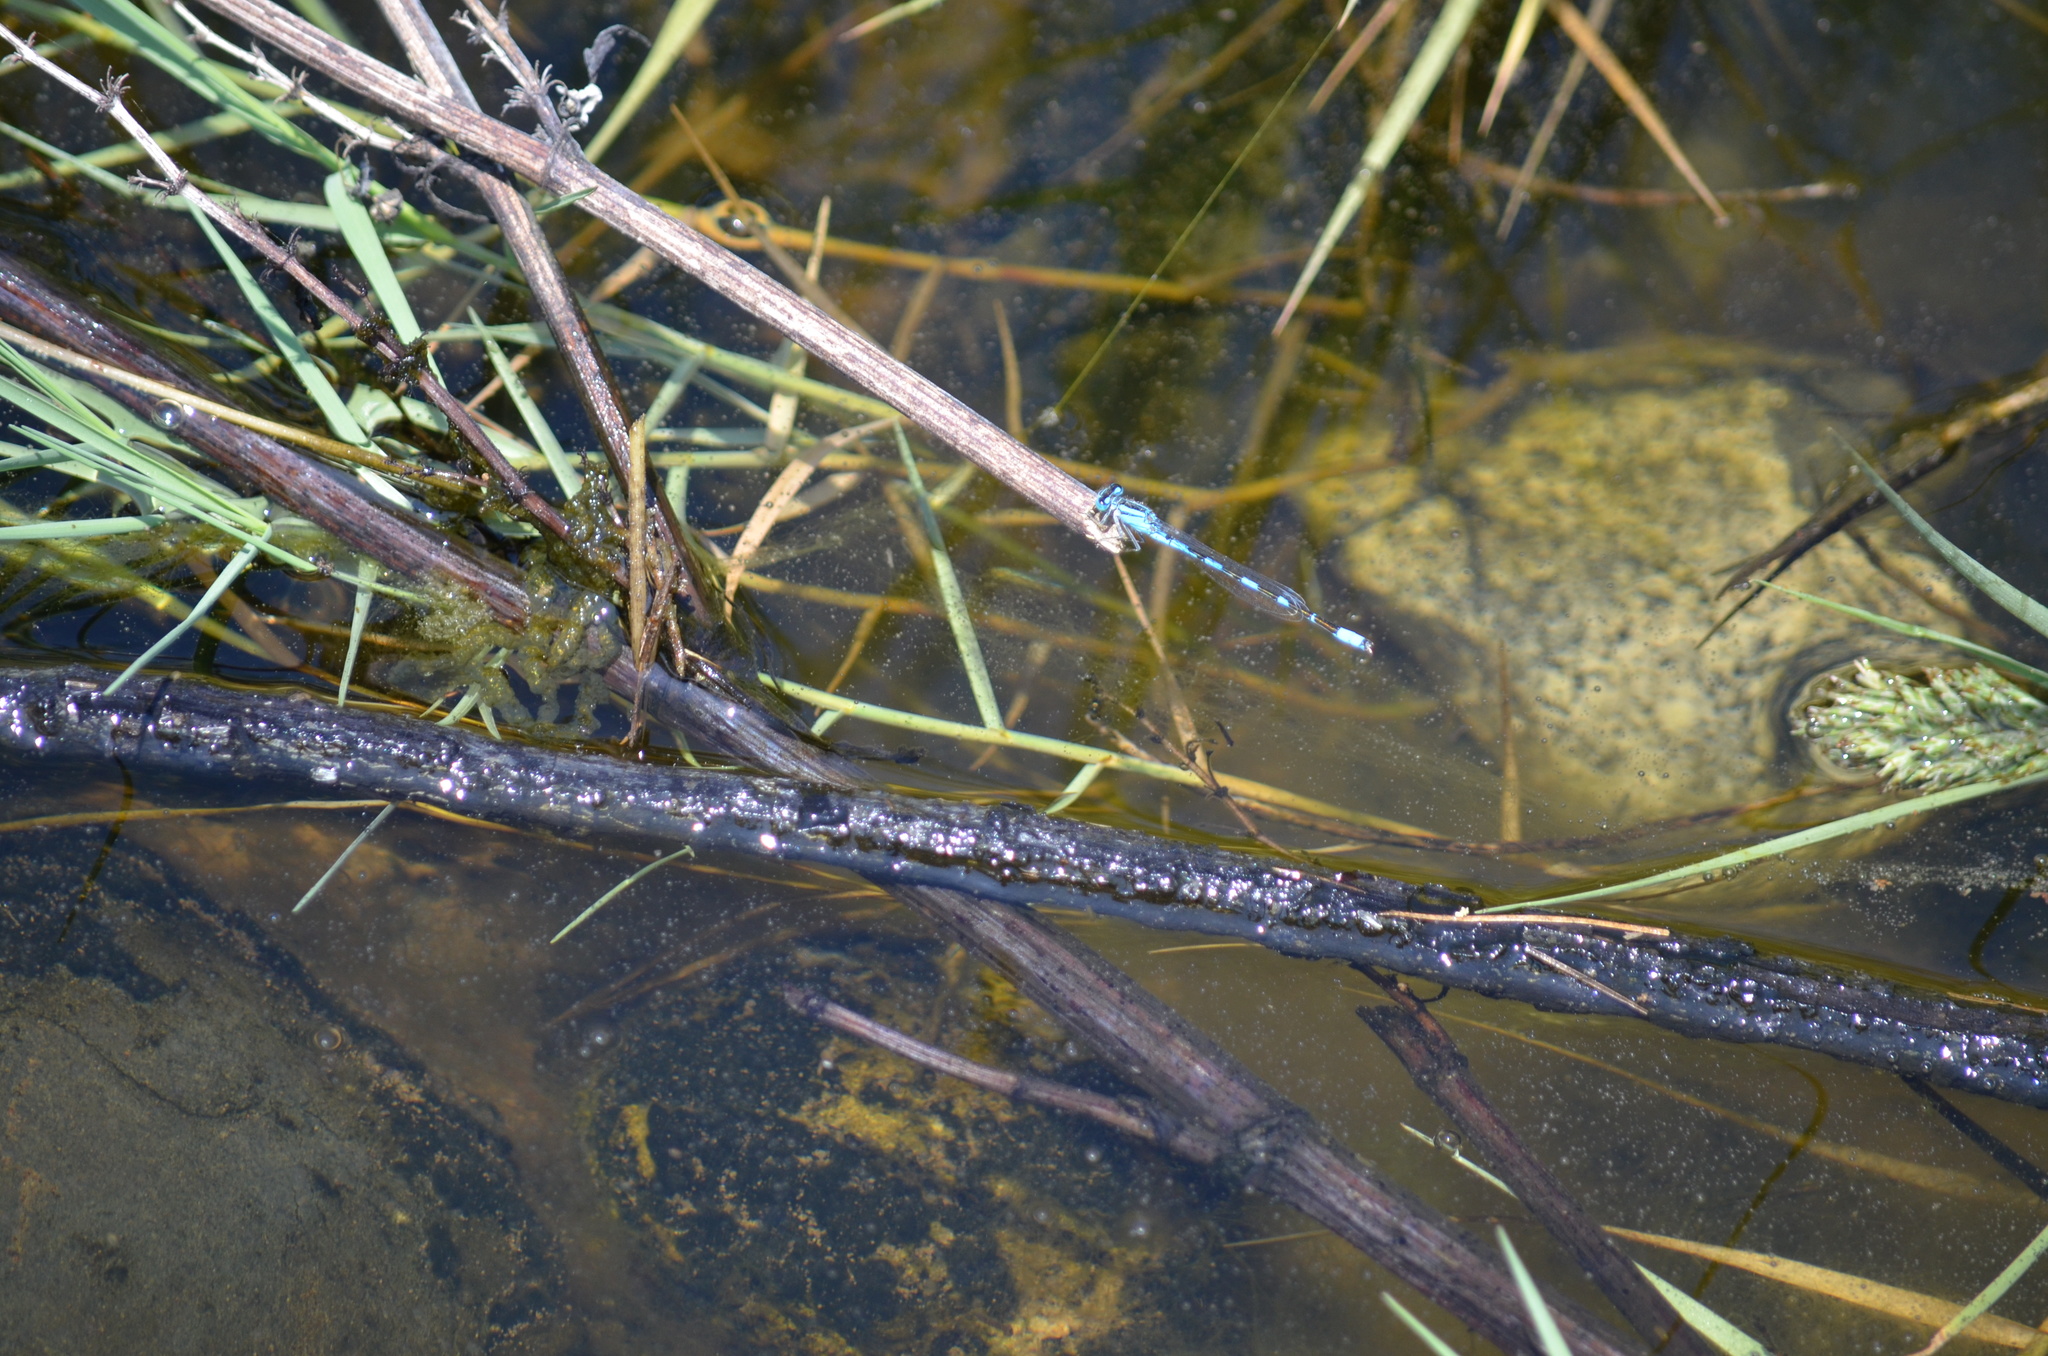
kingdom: Animalia
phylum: Arthropoda
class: Insecta
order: Odonata
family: Coenagrionidae
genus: Enallagma
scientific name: Enallagma carunculatum
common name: Tule bluet
